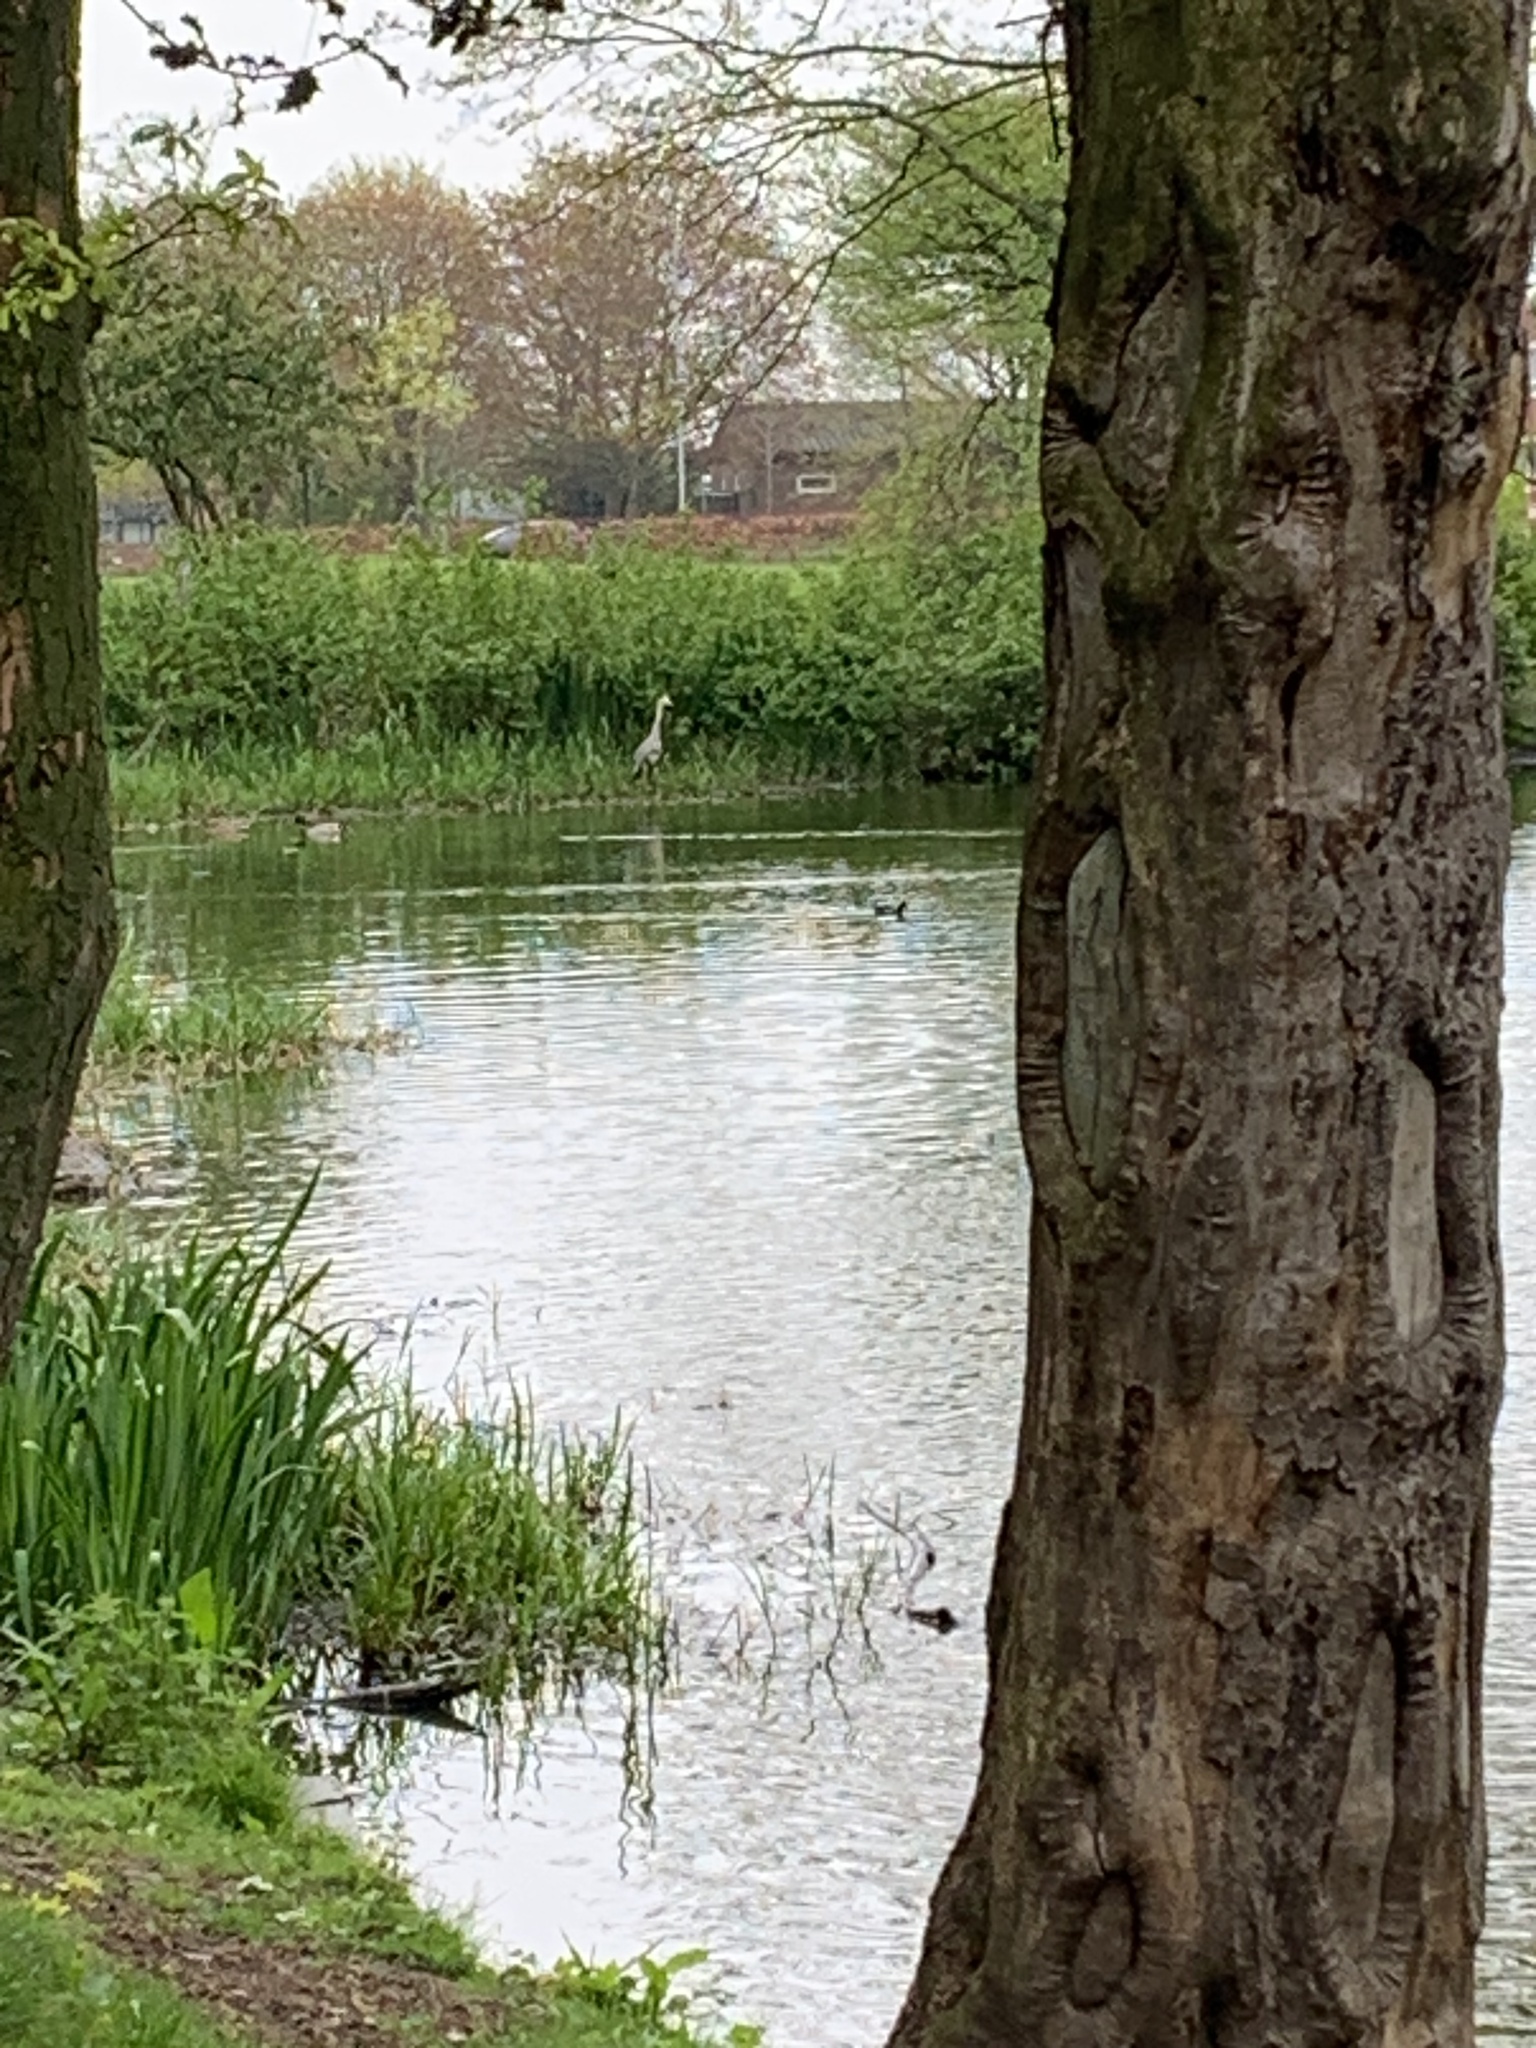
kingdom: Animalia
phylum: Chordata
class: Aves
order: Pelecaniformes
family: Ardeidae
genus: Ardea
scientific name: Ardea cinerea
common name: Grey heron
